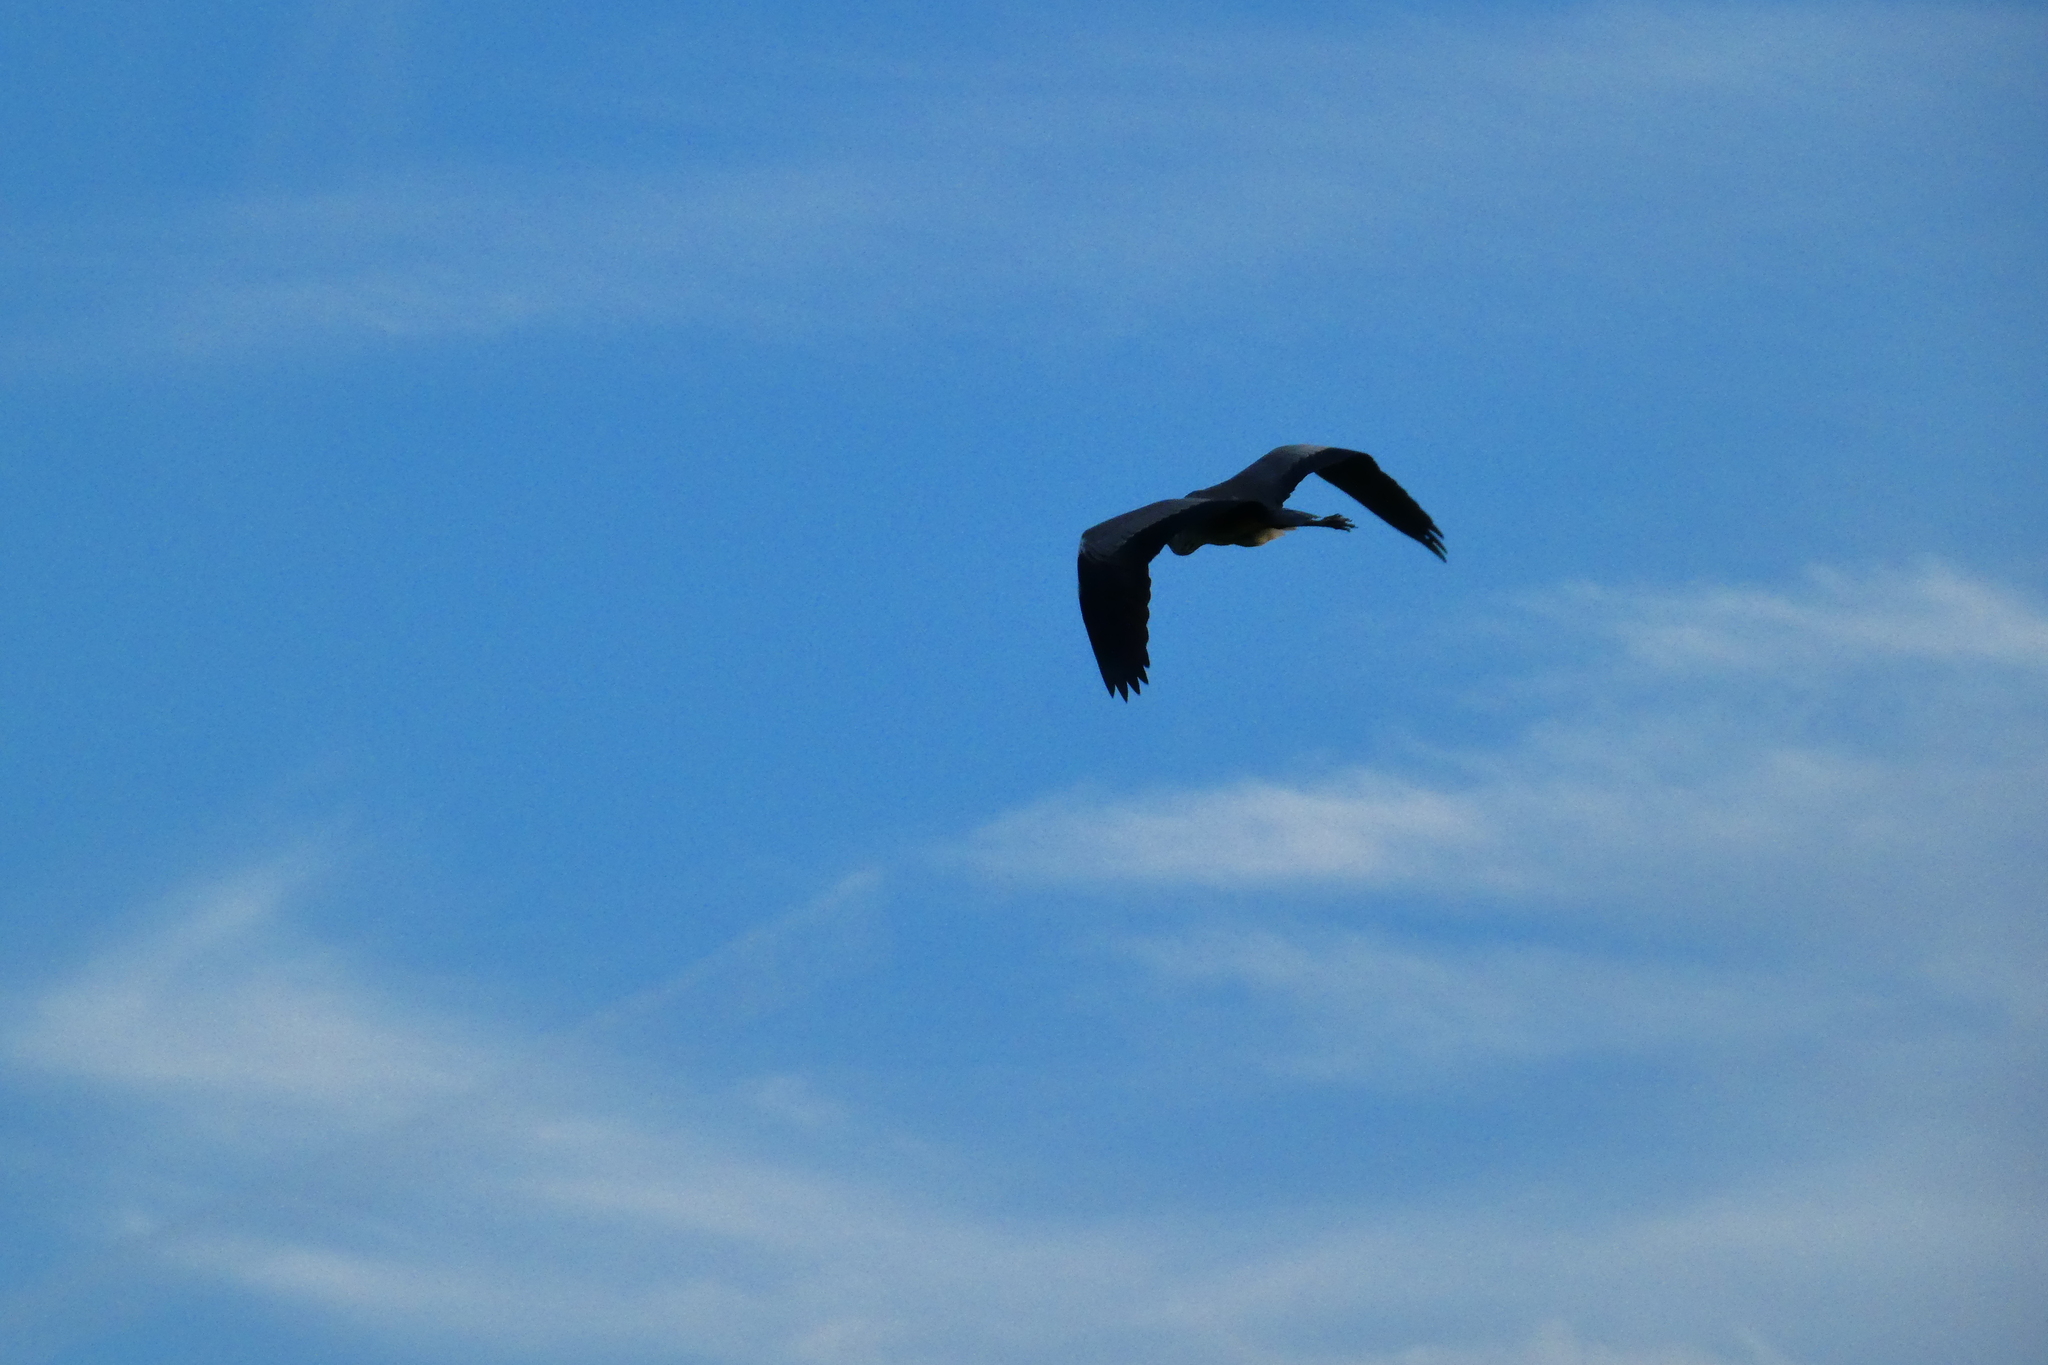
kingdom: Animalia
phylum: Chordata
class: Aves
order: Pelecaniformes
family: Ardeidae
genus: Ardea
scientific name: Ardea cinerea
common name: Grey heron
